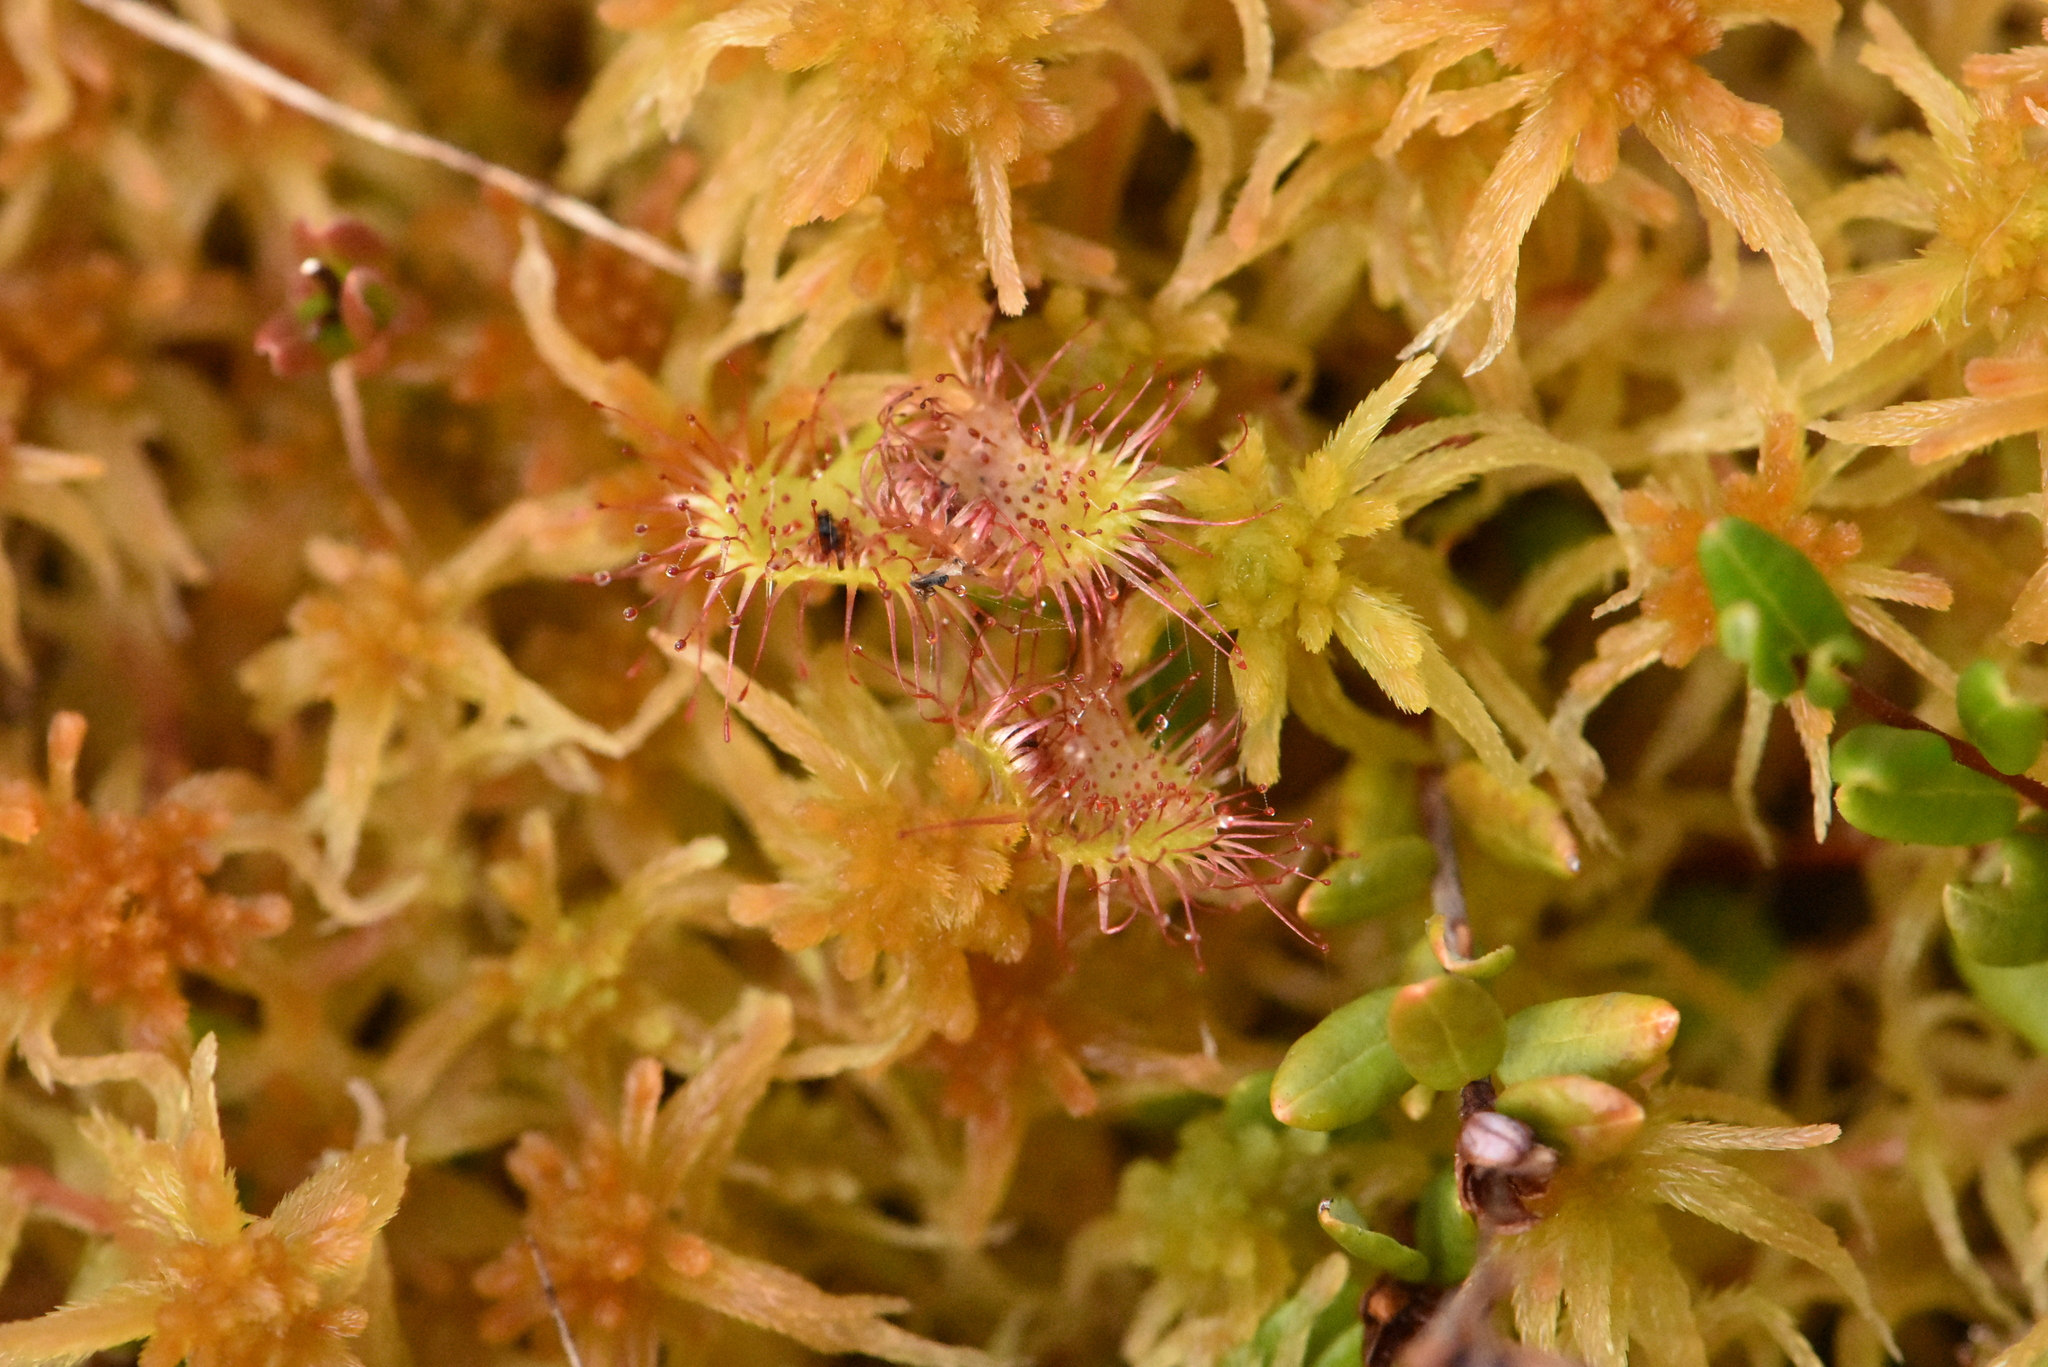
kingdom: Plantae
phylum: Tracheophyta
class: Magnoliopsida
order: Caryophyllales
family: Droseraceae
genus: Drosera
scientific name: Drosera rotundifolia
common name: Round-leaved sundew
